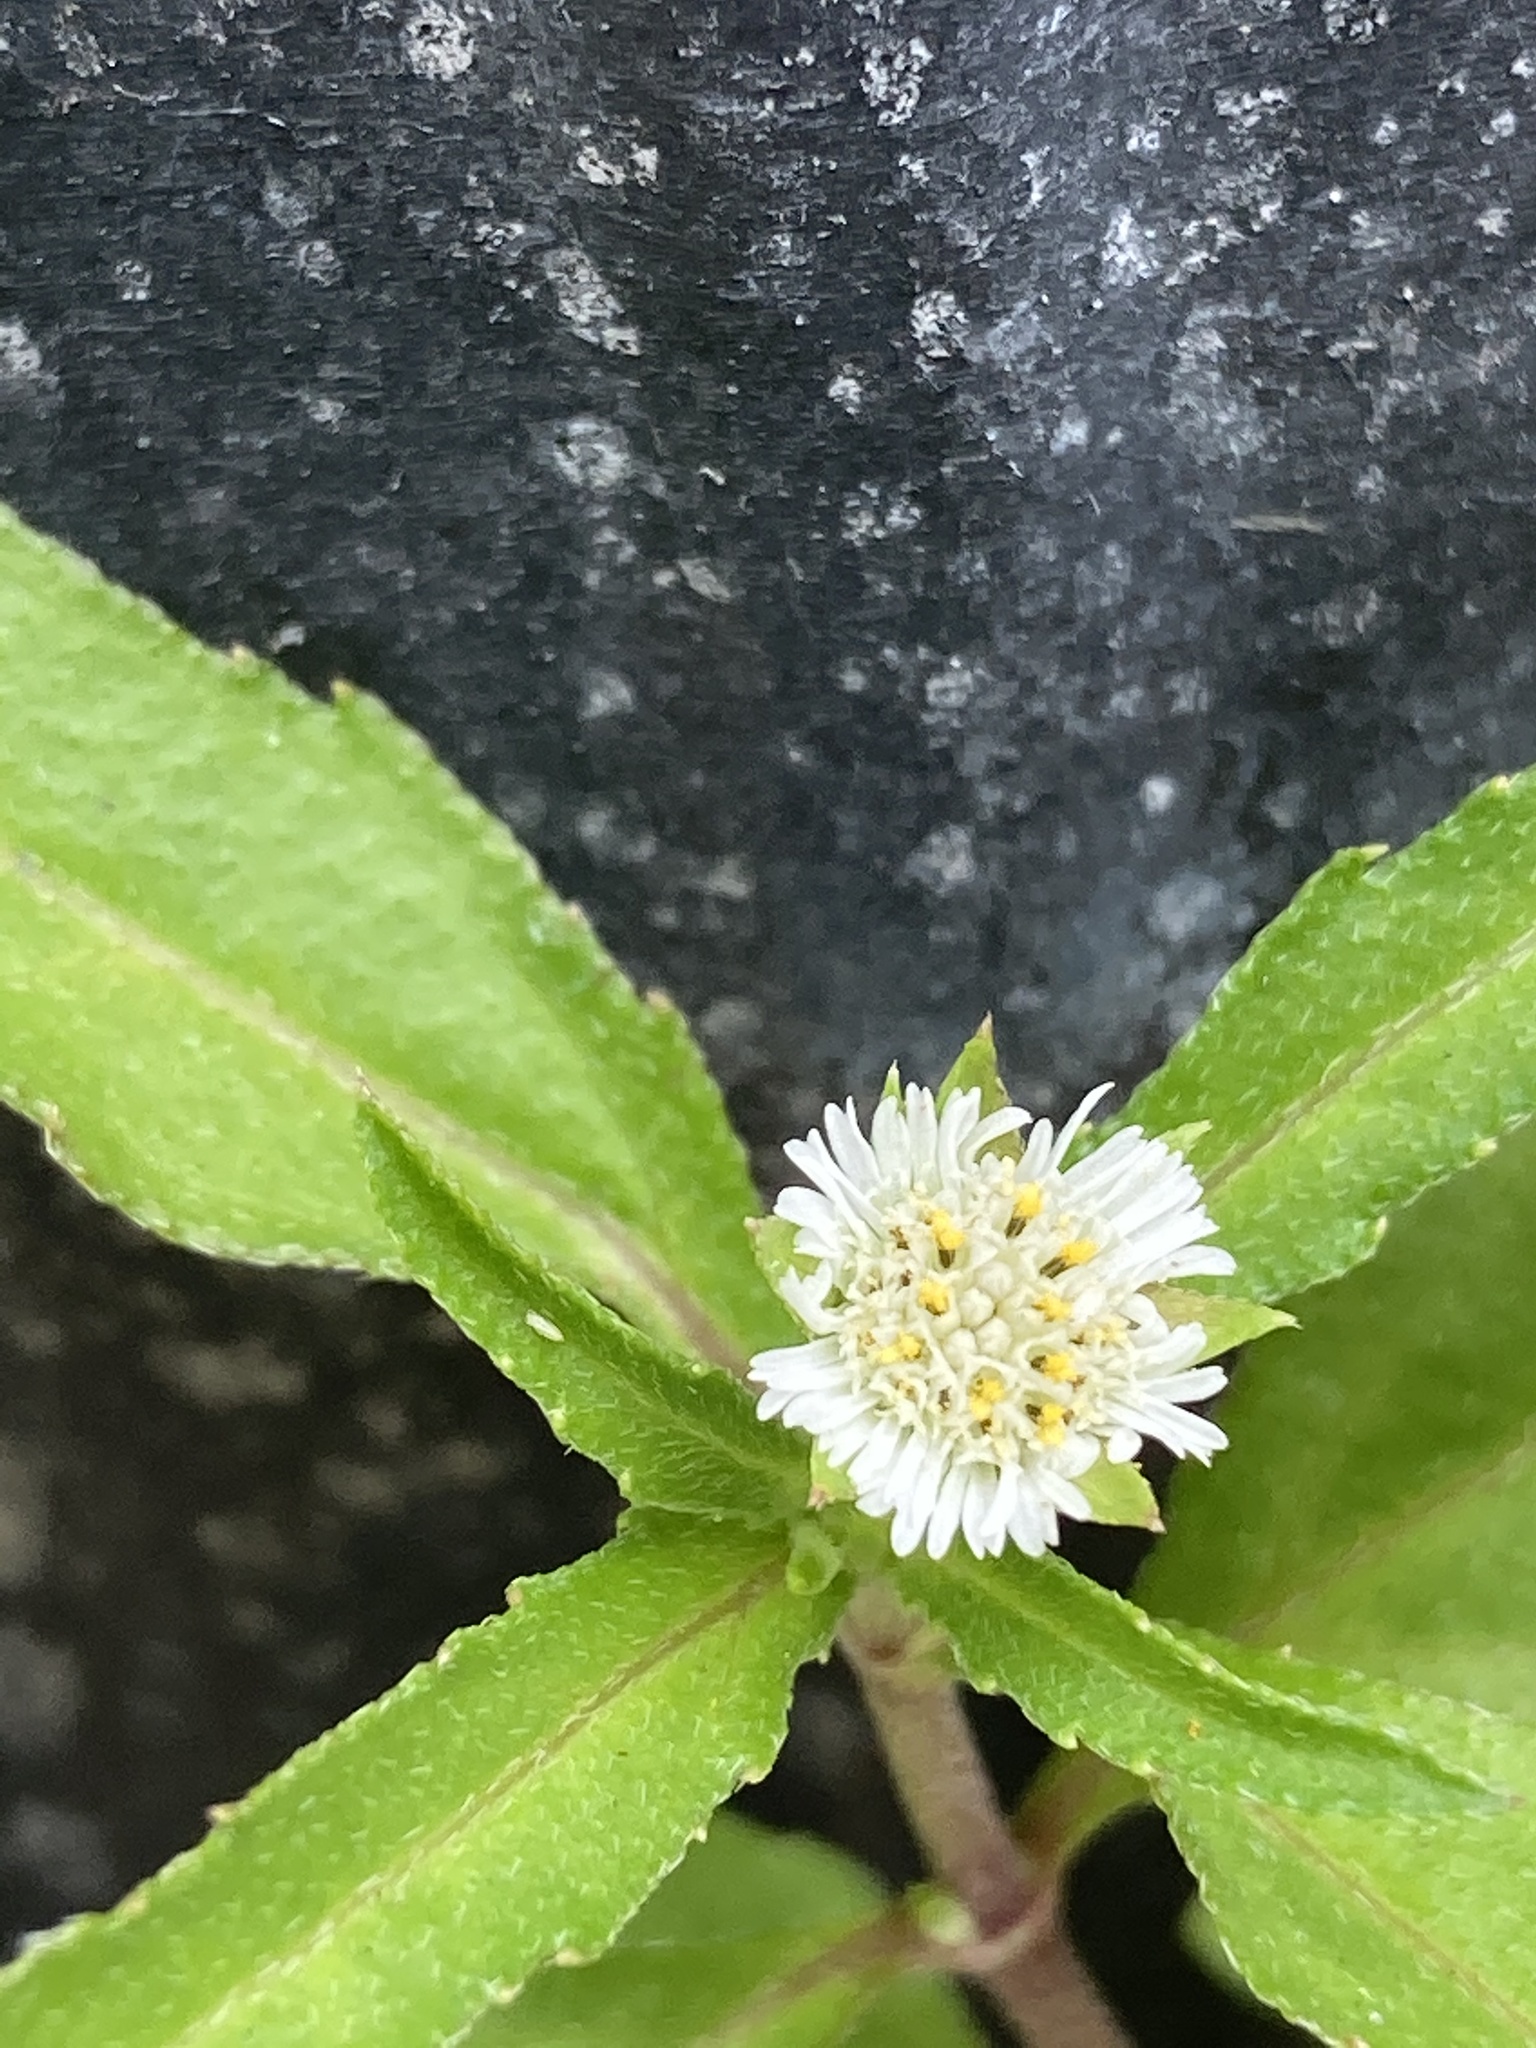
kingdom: Plantae
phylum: Tracheophyta
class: Magnoliopsida
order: Asterales
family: Asteraceae
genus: Eclipta
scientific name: Eclipta prostrata
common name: False daisy
